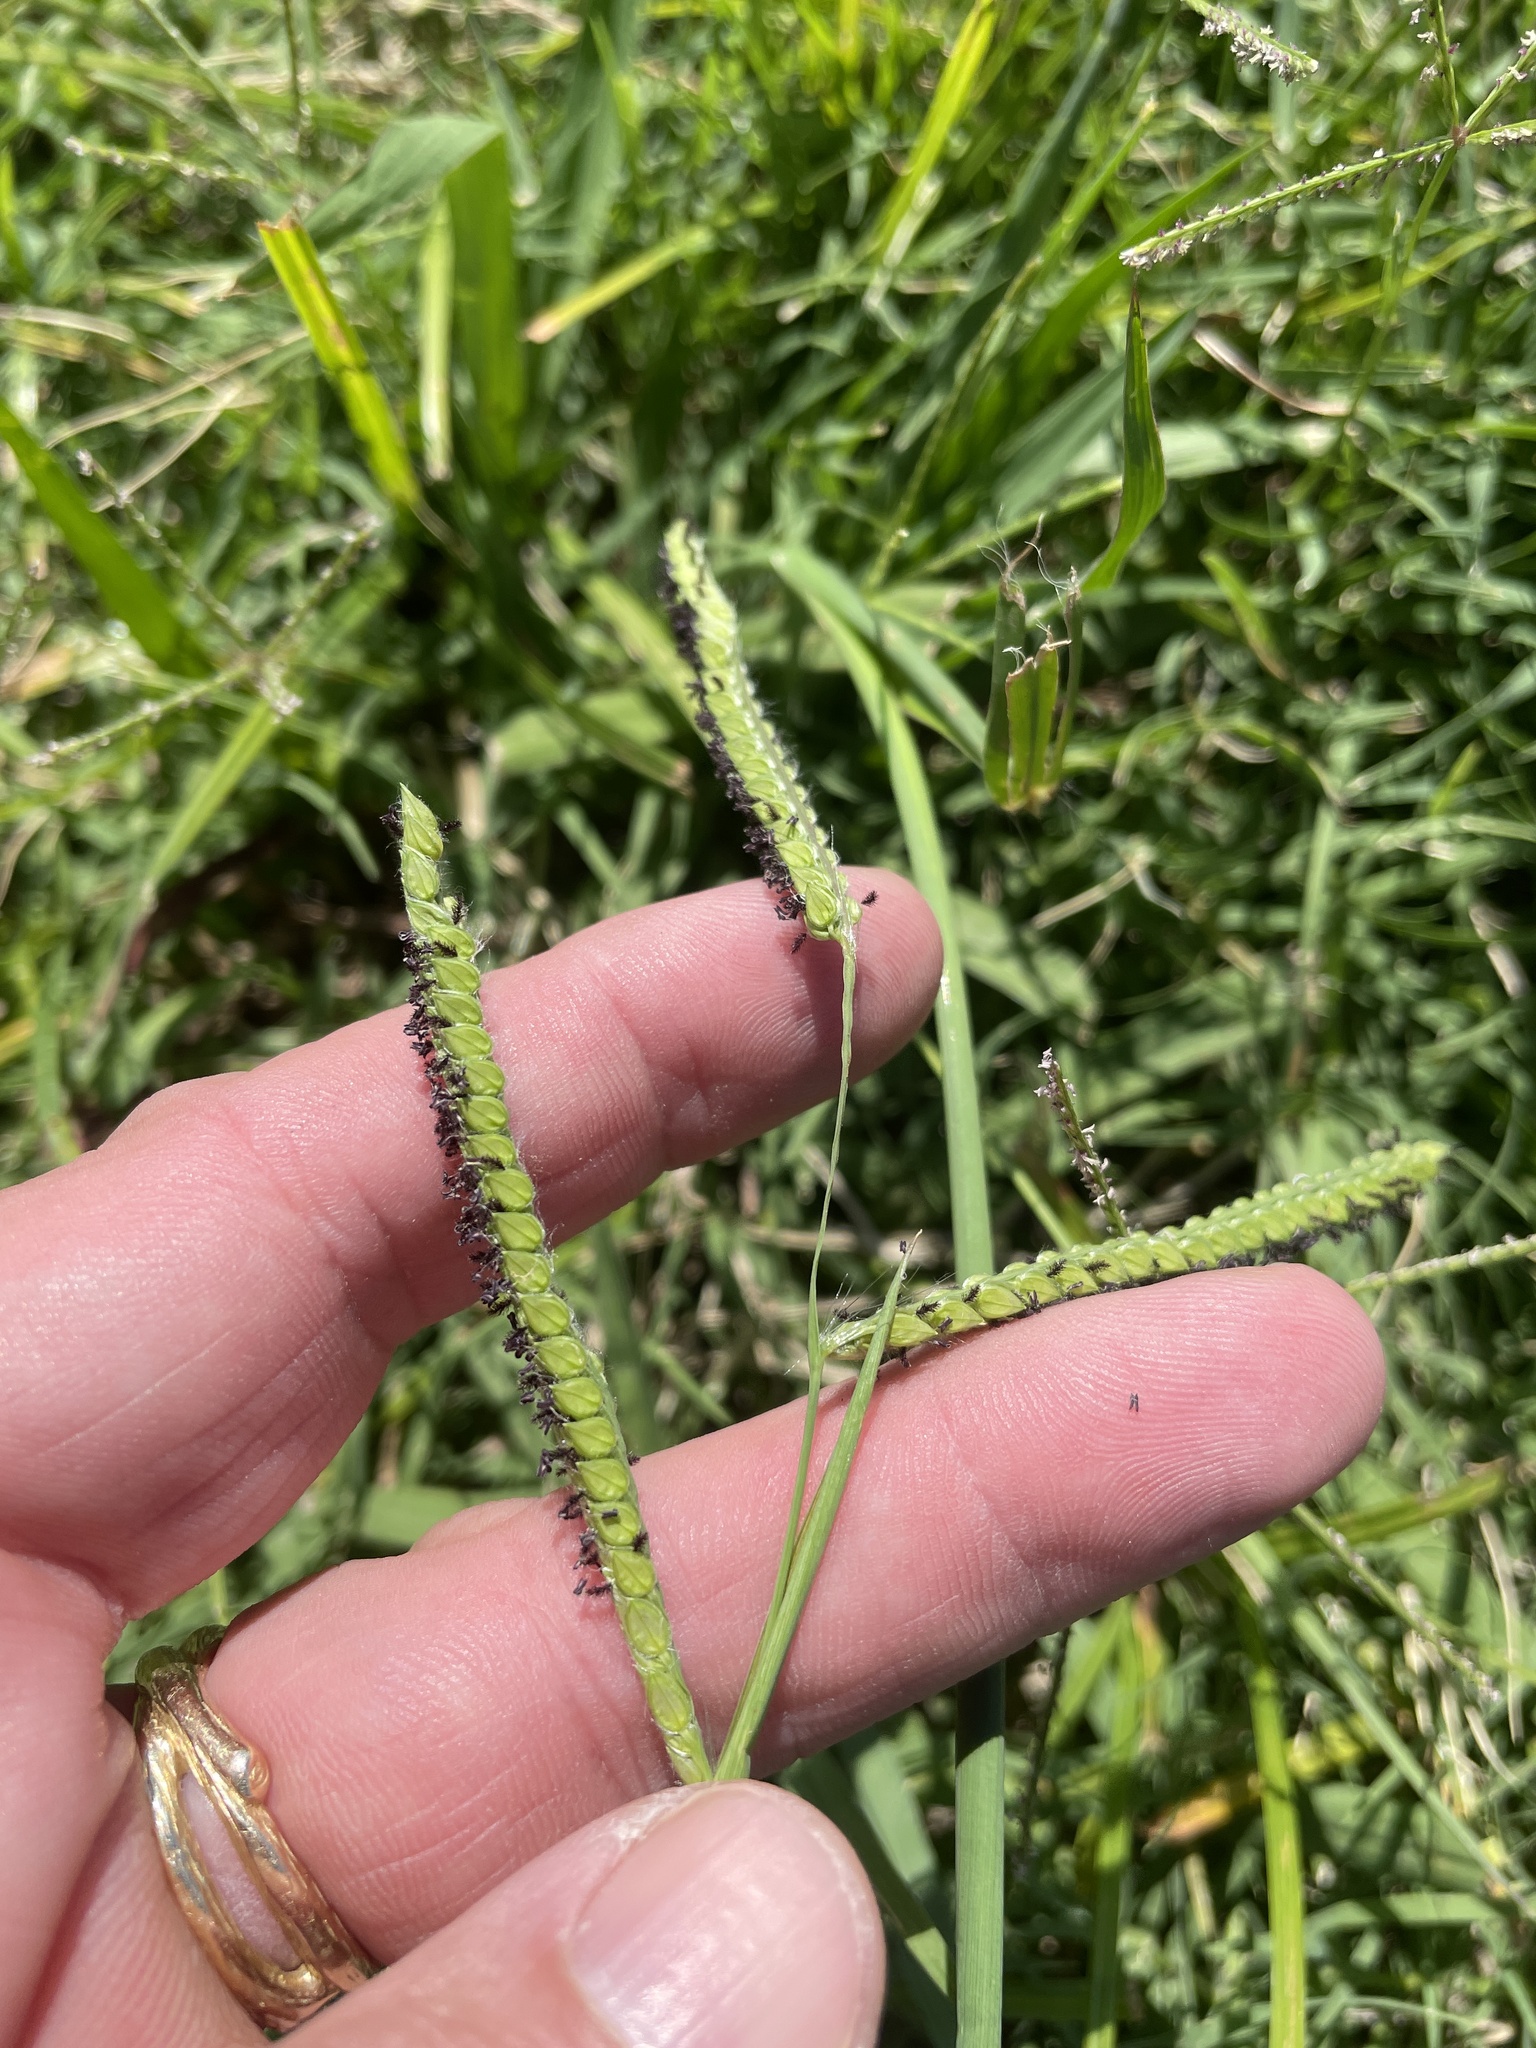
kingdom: Plantae
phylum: Tracheophyta
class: Liliopsida
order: Poales
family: Poaceae
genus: Paspalum
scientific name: Paspalum dilatatum
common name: Dallisgrass
